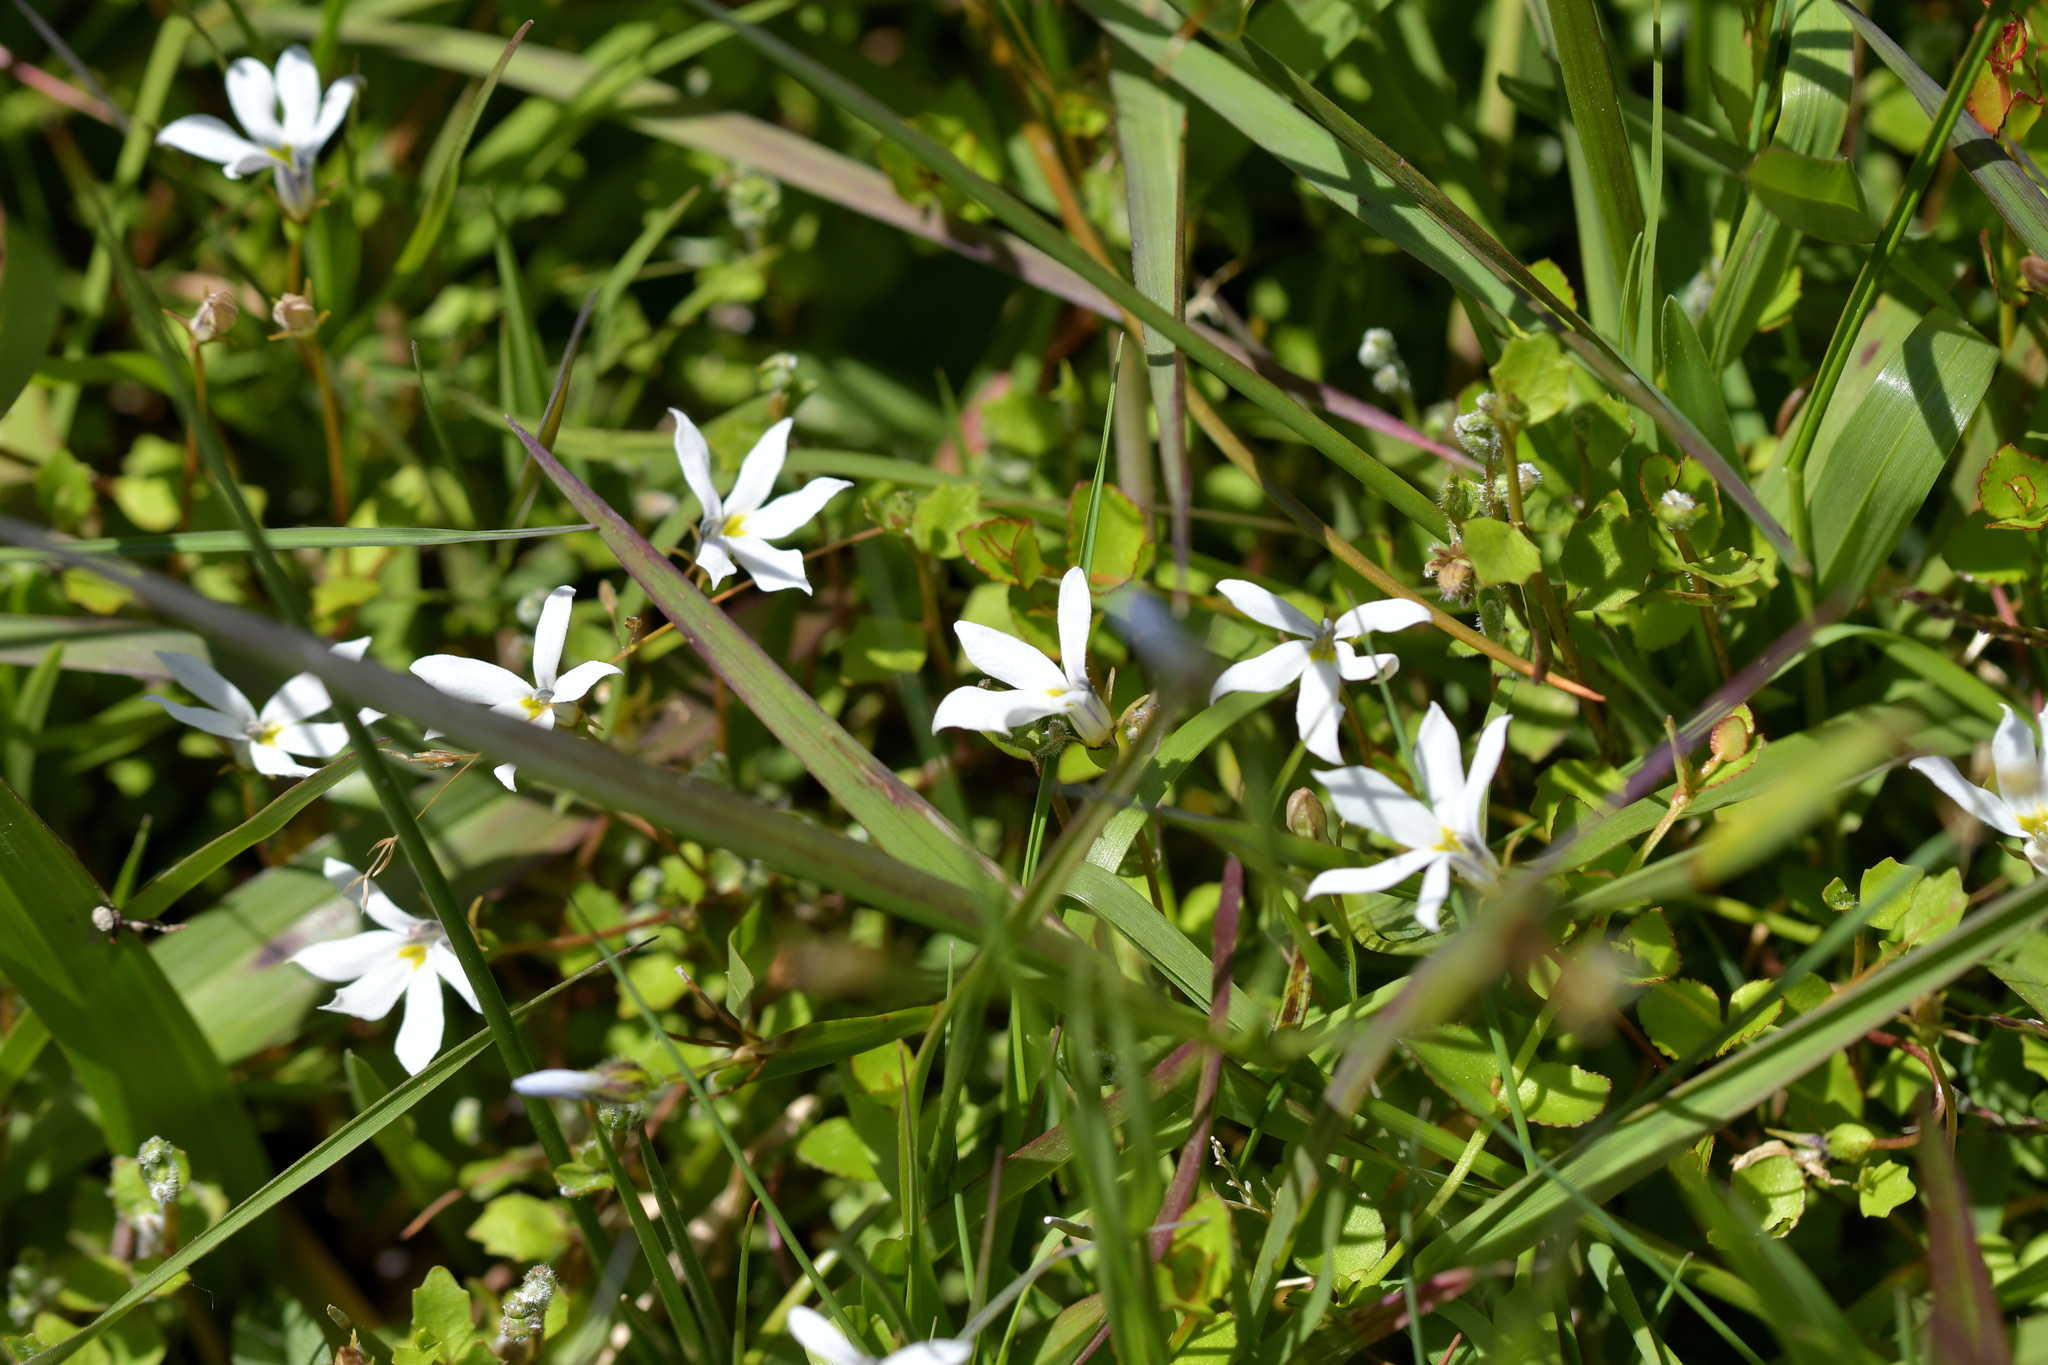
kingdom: Plantae
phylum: Tracheophyta
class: Magnoliopsida
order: Asterales
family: Campanulaceae
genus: Lobelia
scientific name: Lobelia angulata
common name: Lawn lobelia
